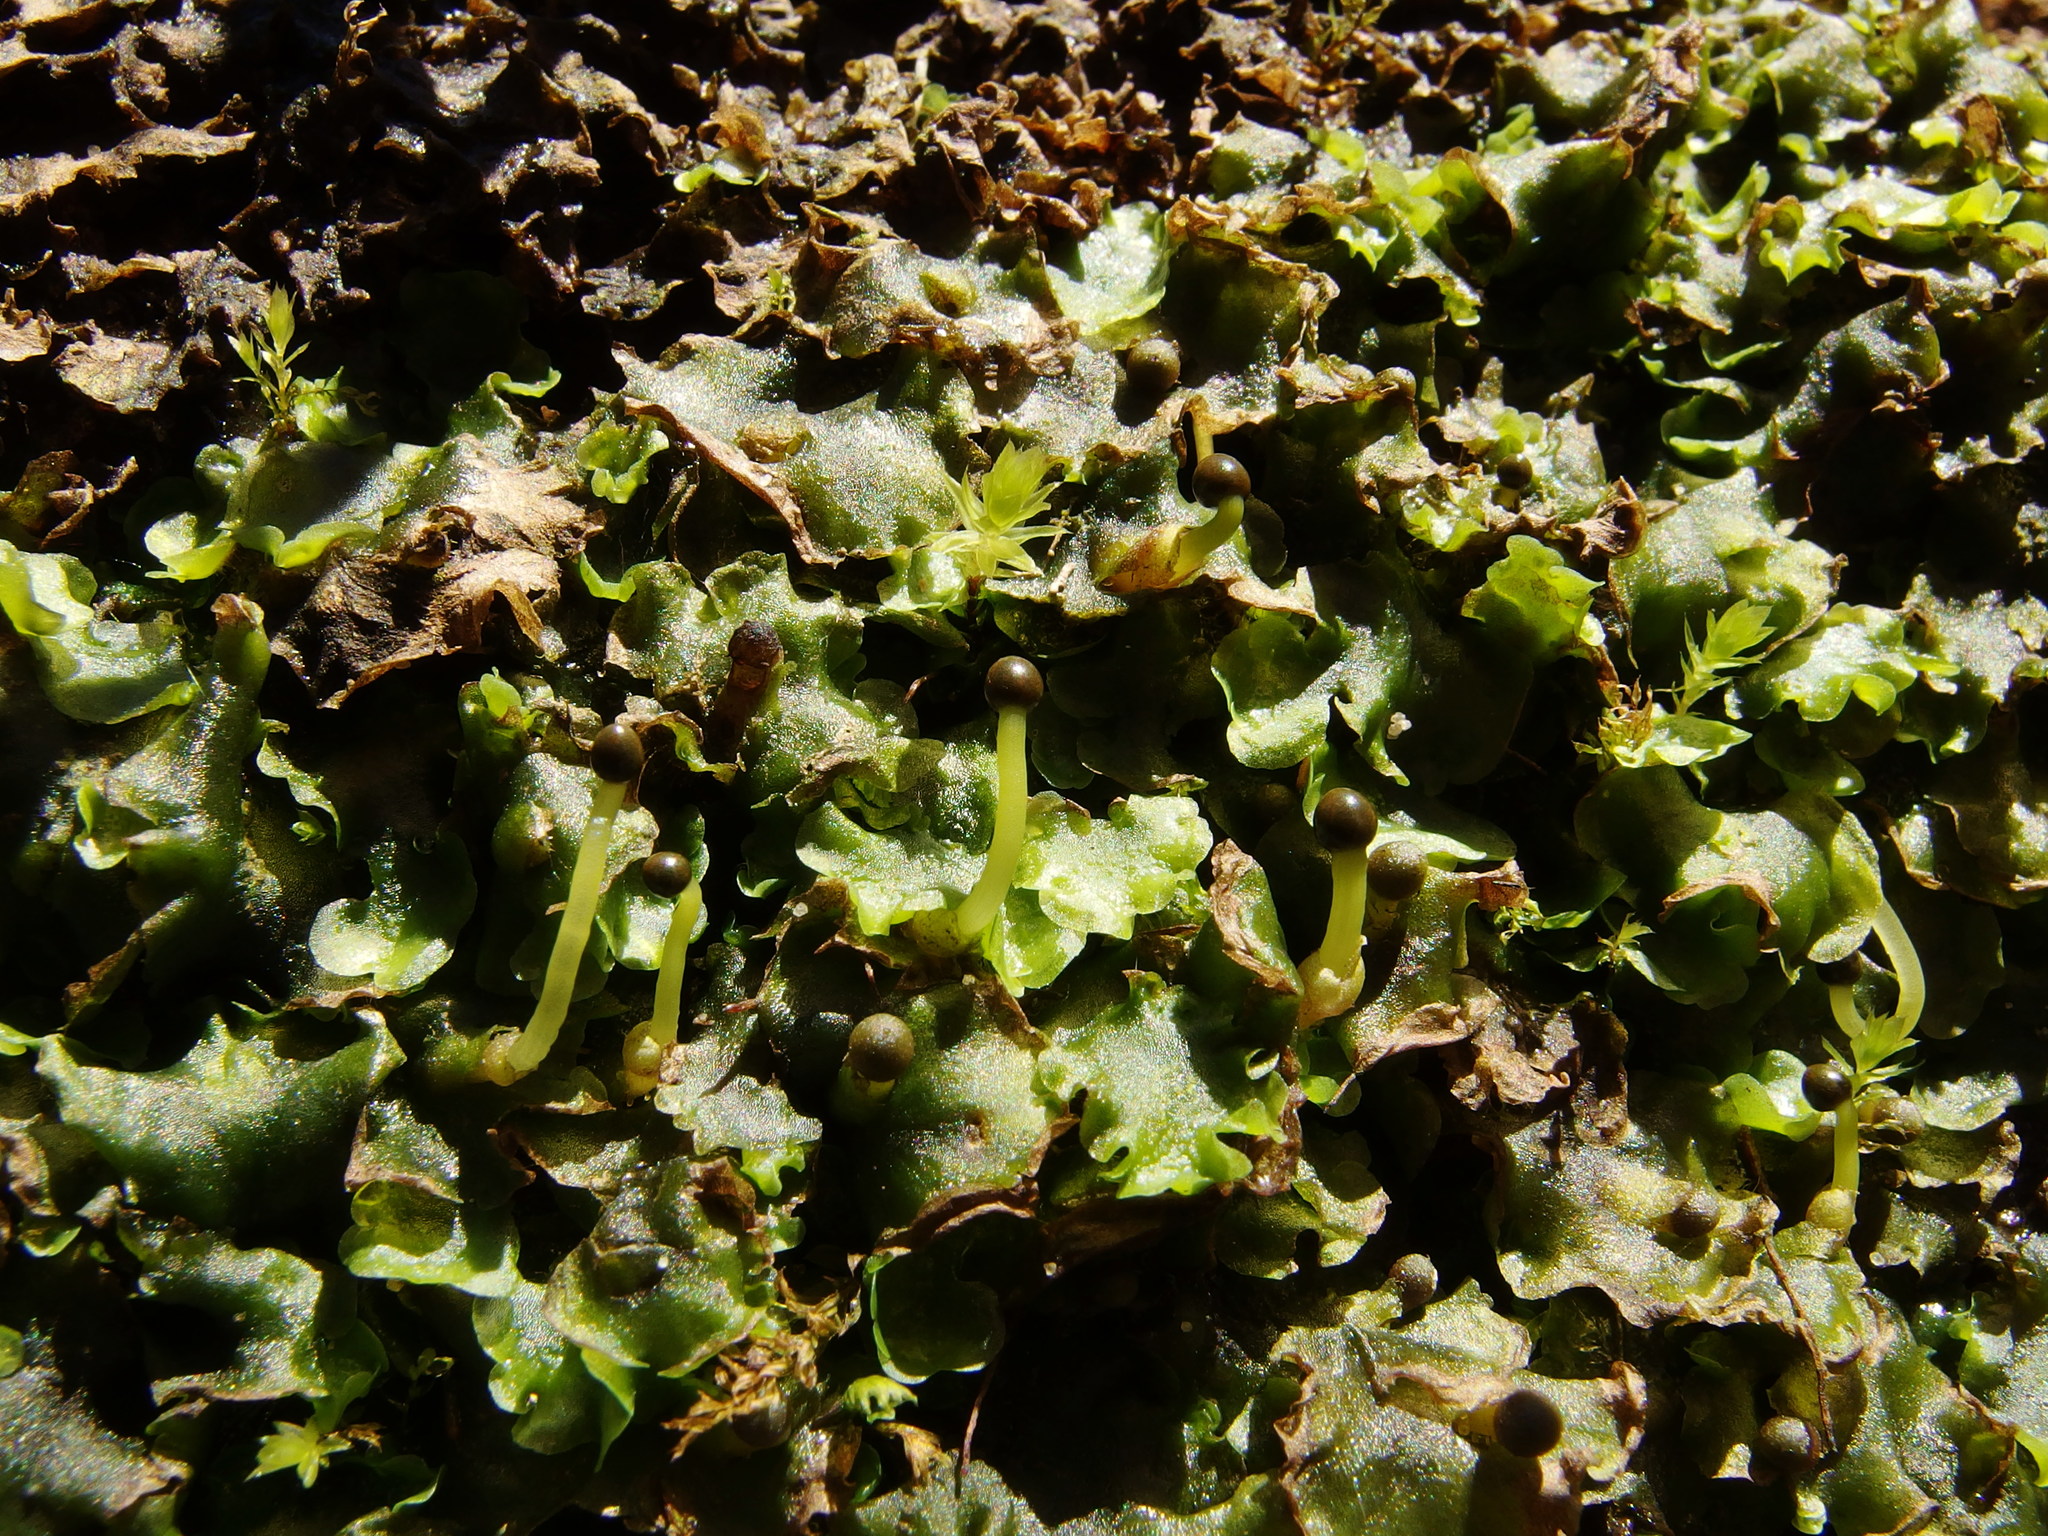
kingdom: Plantae
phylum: Marchantiophyta
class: Jungermanniopsida
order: Pelliales
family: Pelliaceae
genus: Pellia
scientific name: Pellia epiphylla
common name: Common pellia
